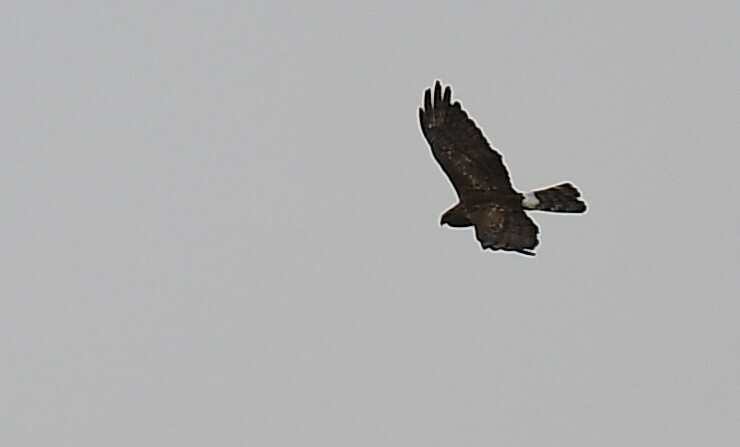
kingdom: Animalia
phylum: Chordata
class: Aves
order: Accipitriformes
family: Accipitridae
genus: Circus
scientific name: Circus cyaneus
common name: Hen harrier
